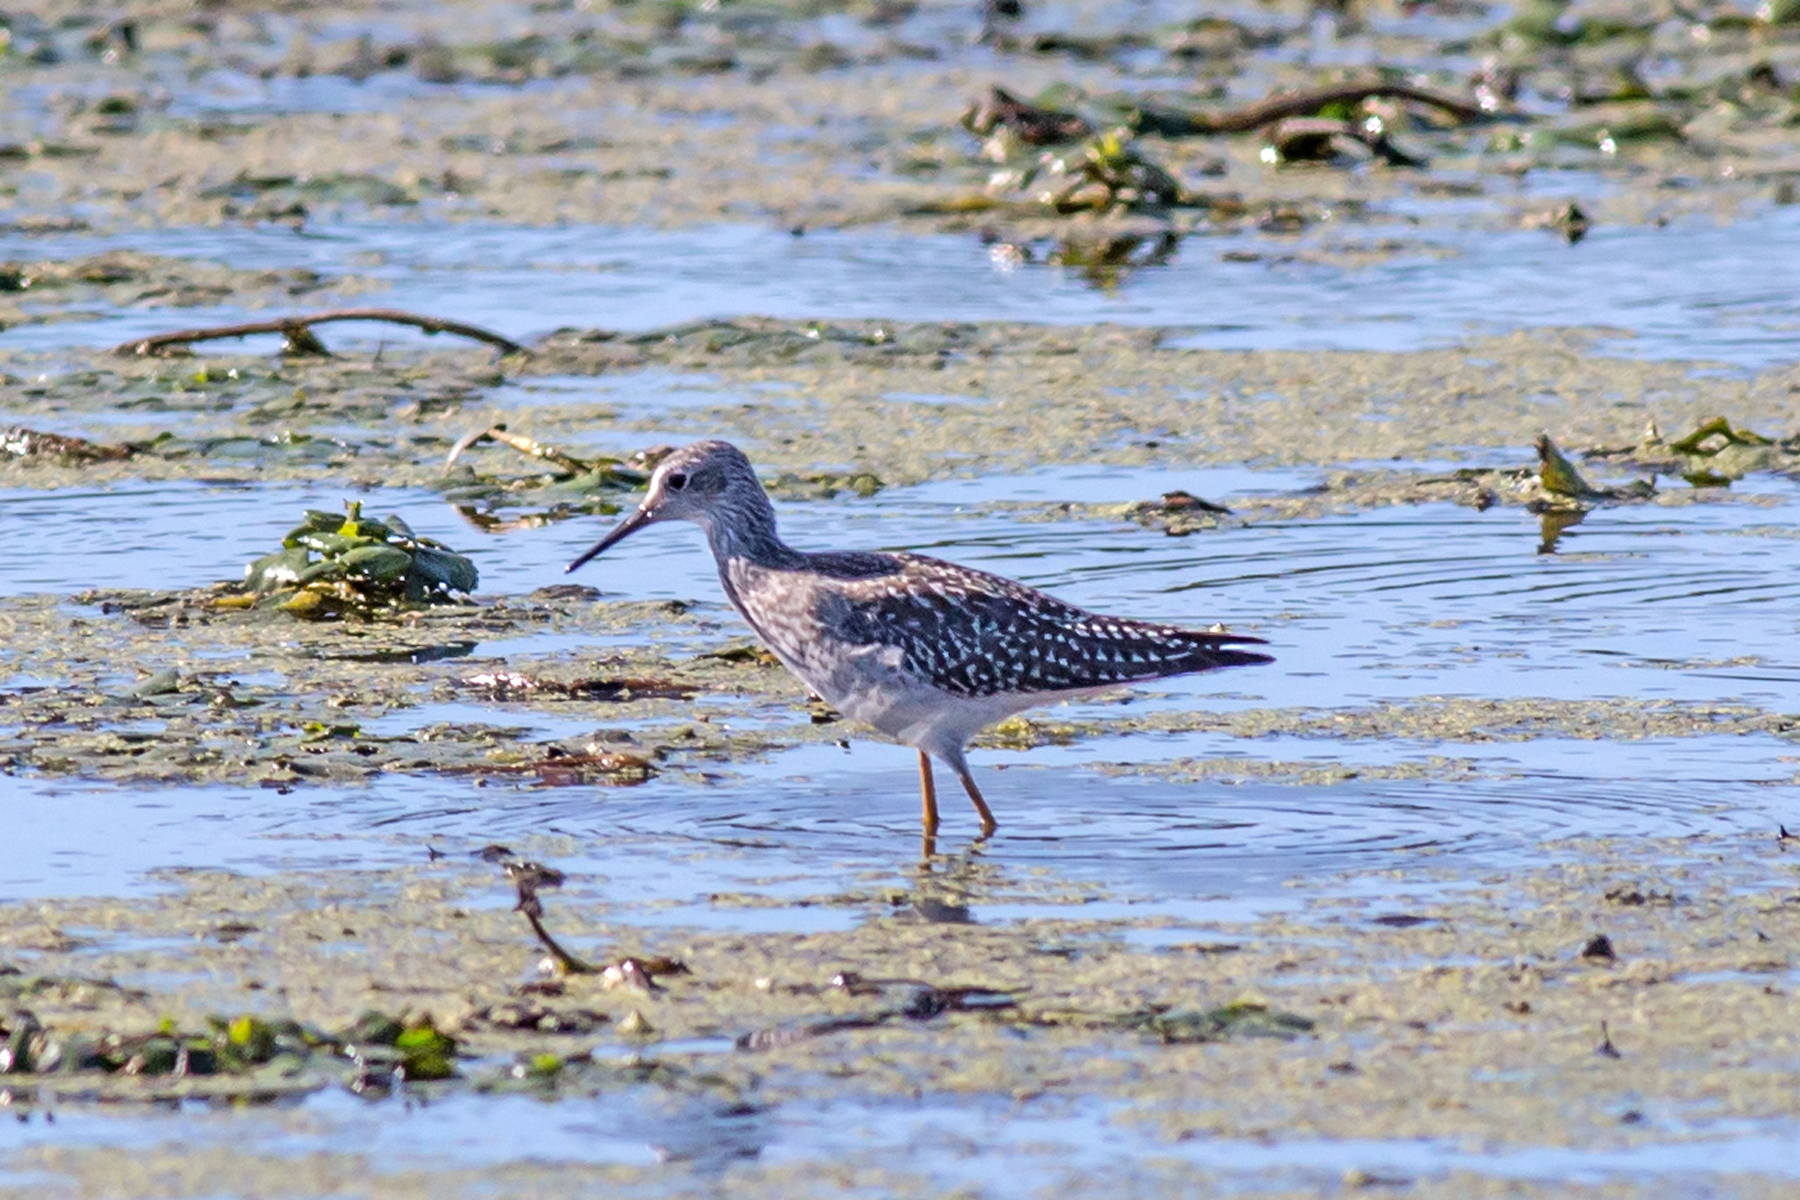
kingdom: Animalia
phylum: Chordata
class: Aves
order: Charadriiformes
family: Scolopacidae
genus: Tringa
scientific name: Tringa flavipes
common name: Lesser yellowlegs
